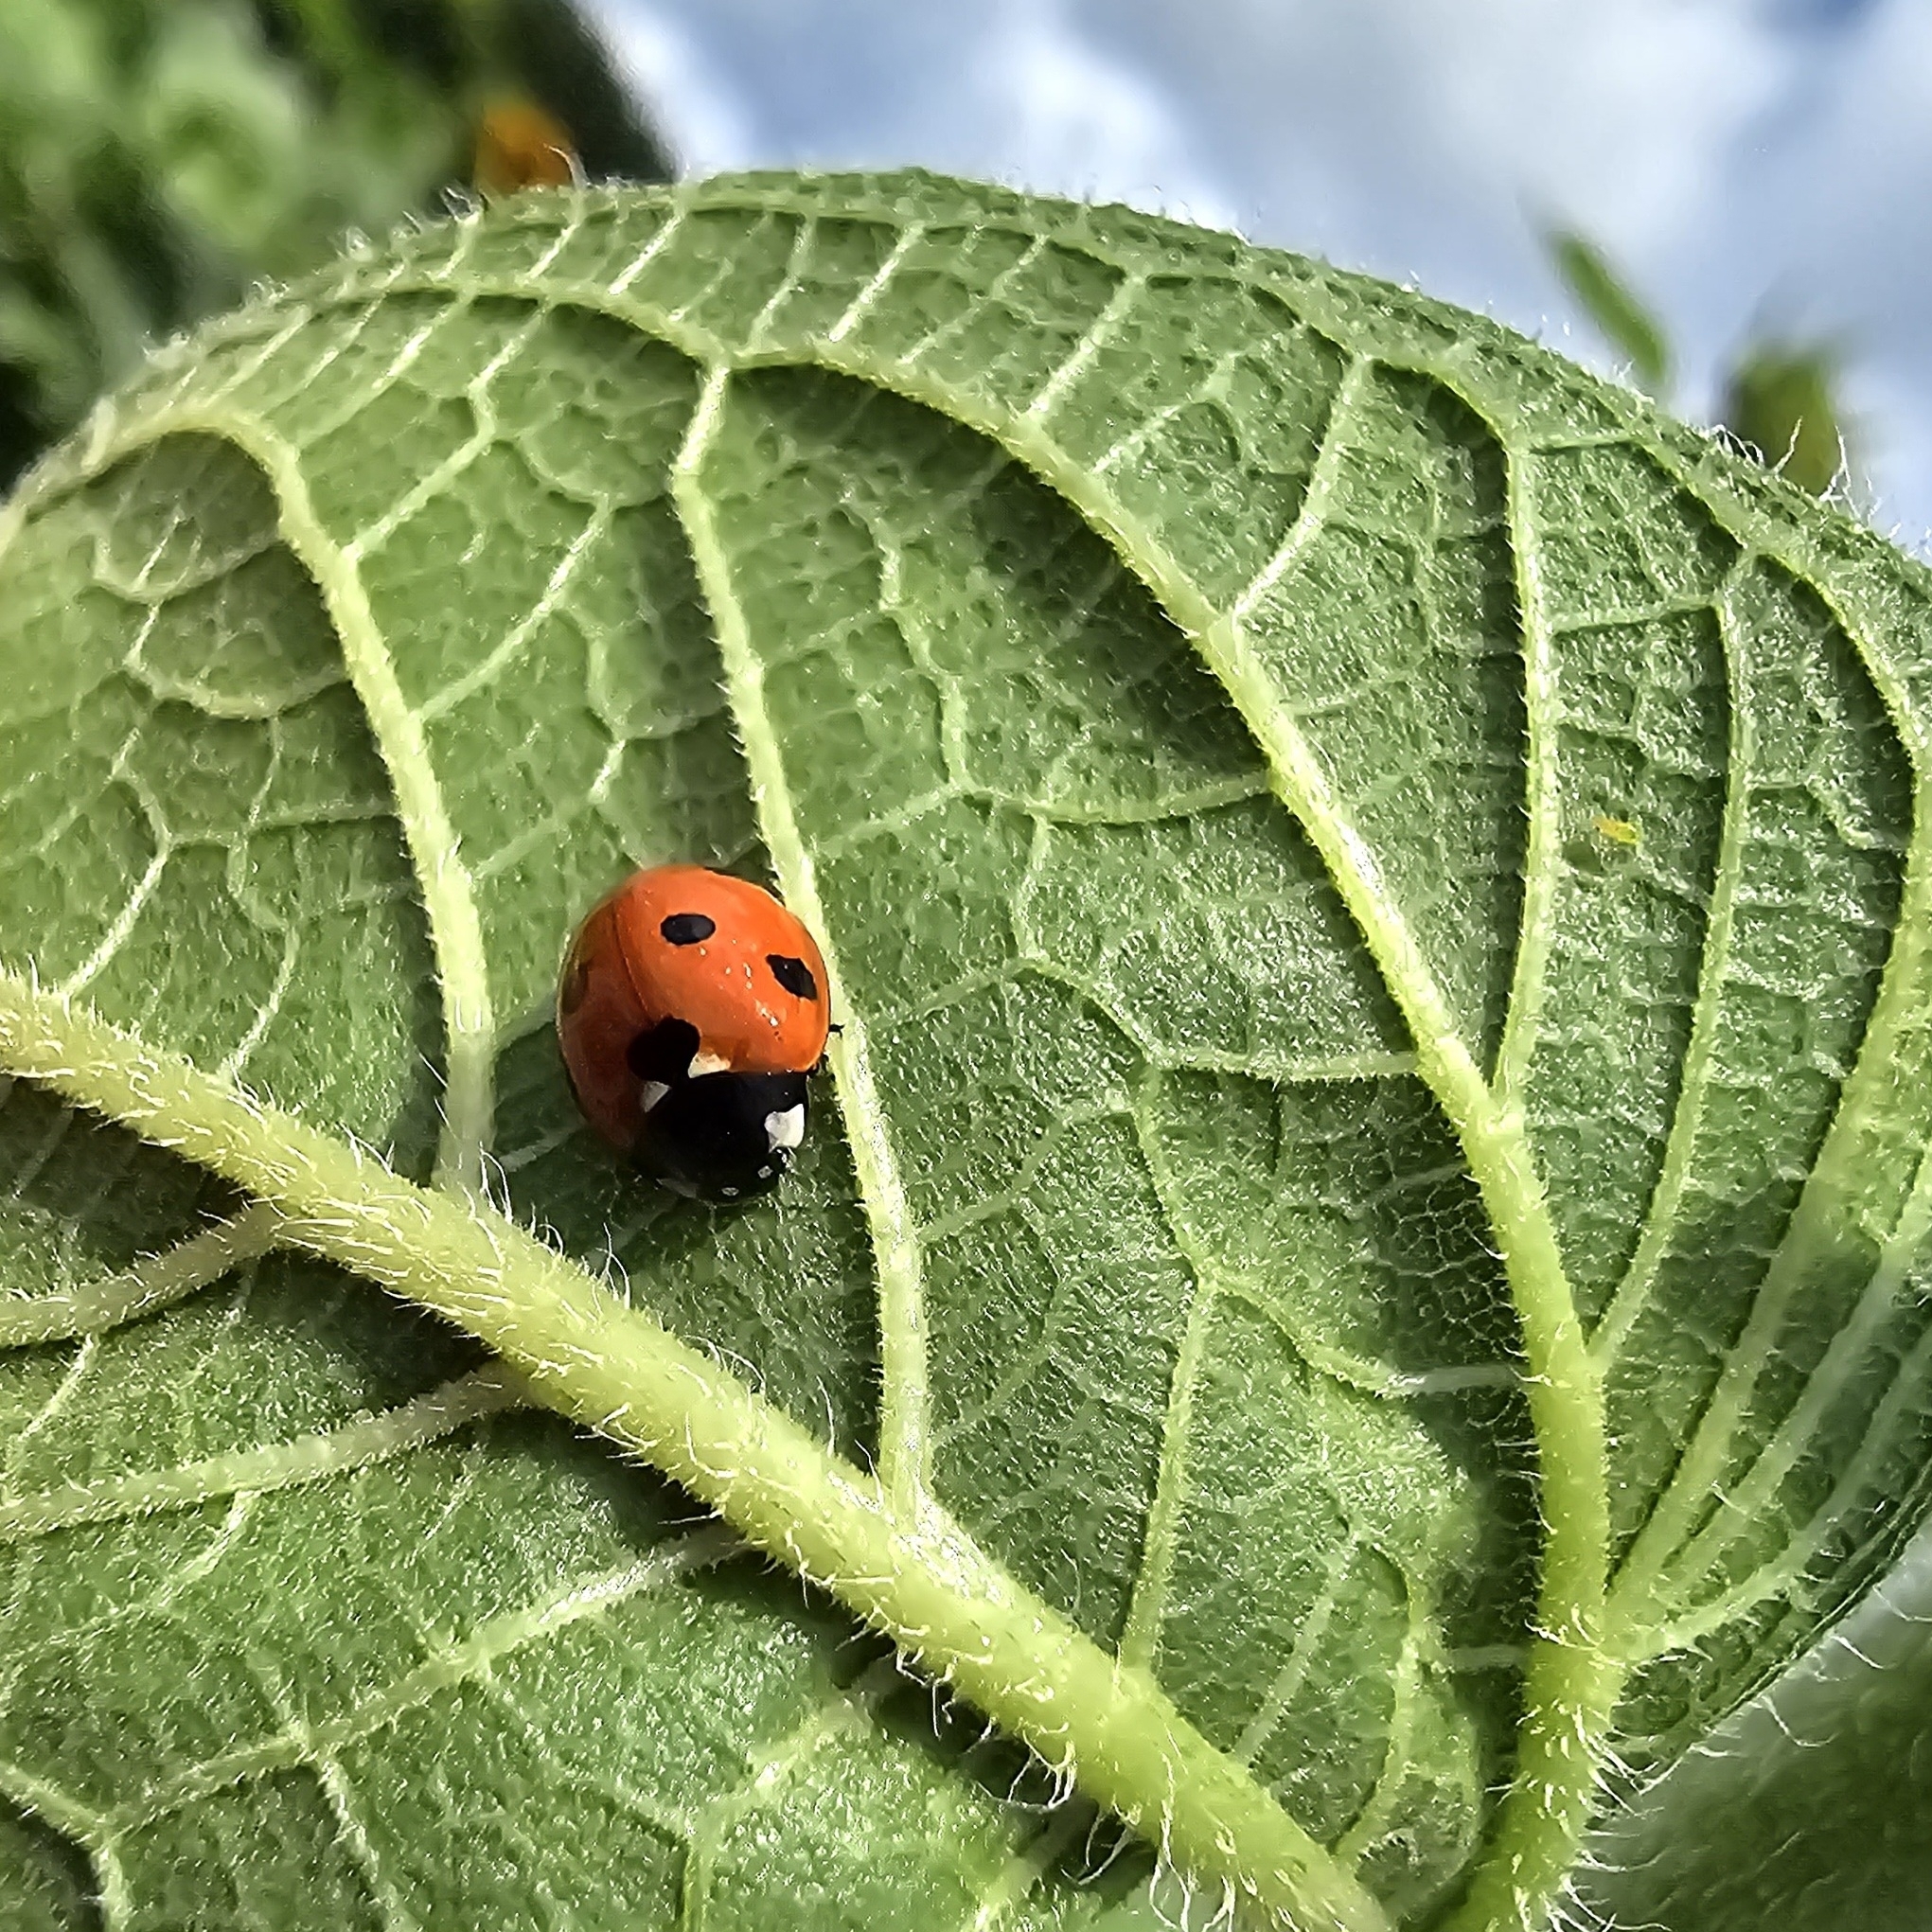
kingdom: Animalia
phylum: Arthropoda
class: Insecta
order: Coleoptera
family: Coccinellidae
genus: Coccinella
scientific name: Coccinella septempunctata
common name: Sevenspotted lady beetle
